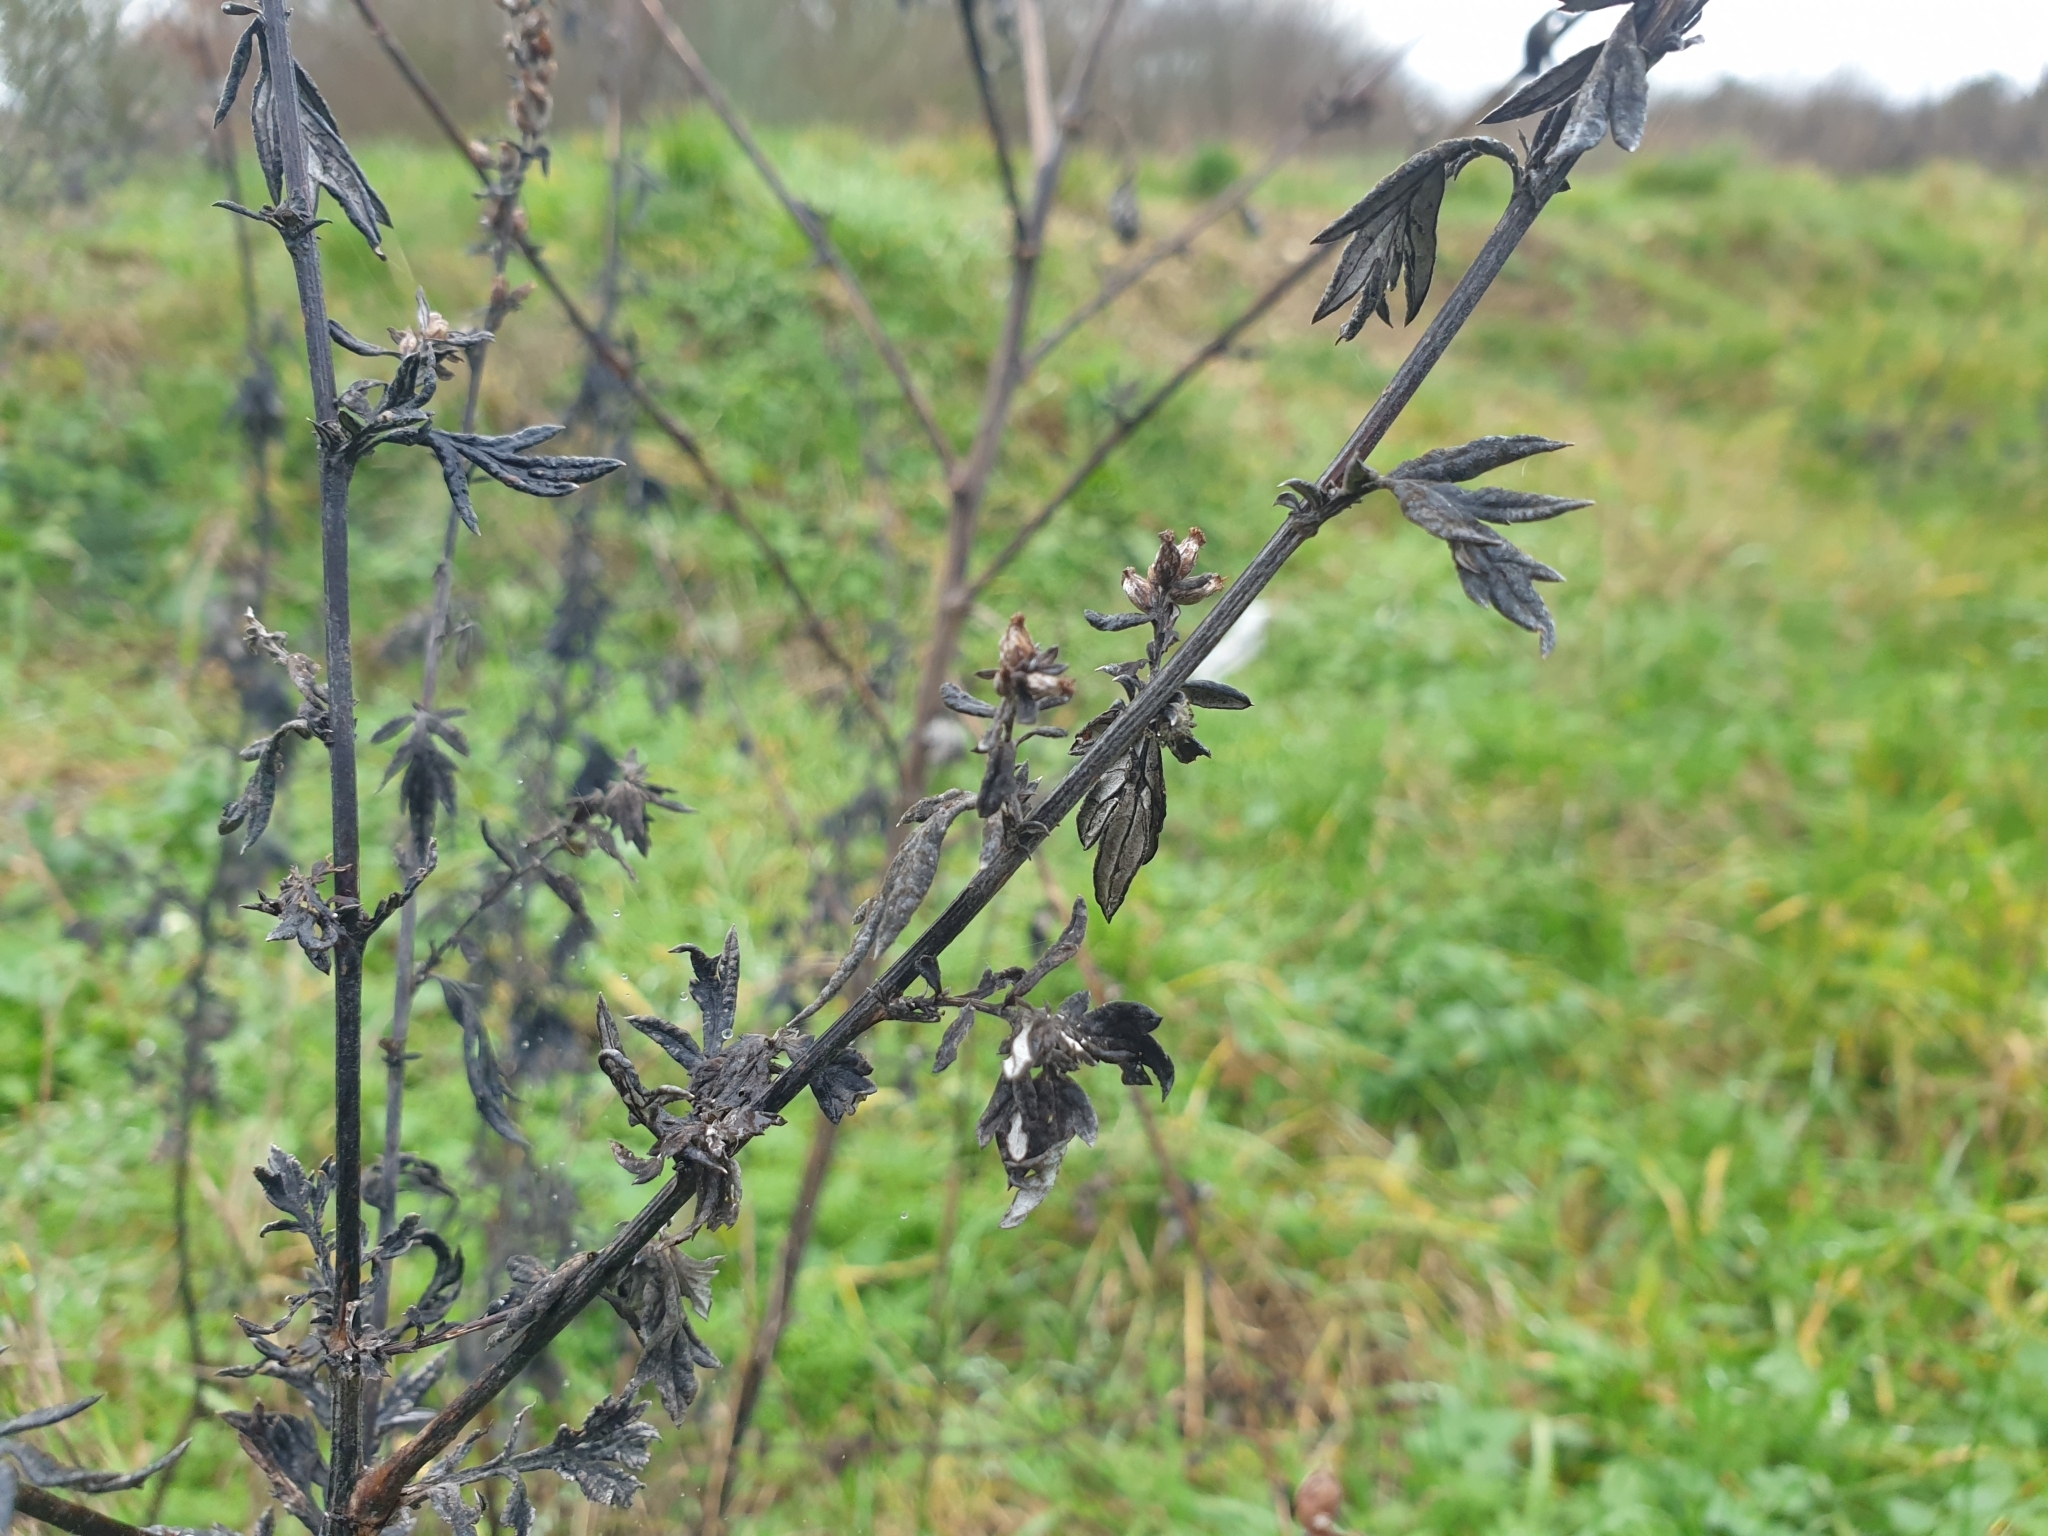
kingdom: Plantae
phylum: Tracheophyta
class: Magnoliopsida
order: Asterales
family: Asteraceae
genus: Artemisia
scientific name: Artemisia vulgaris
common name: Mugwort
